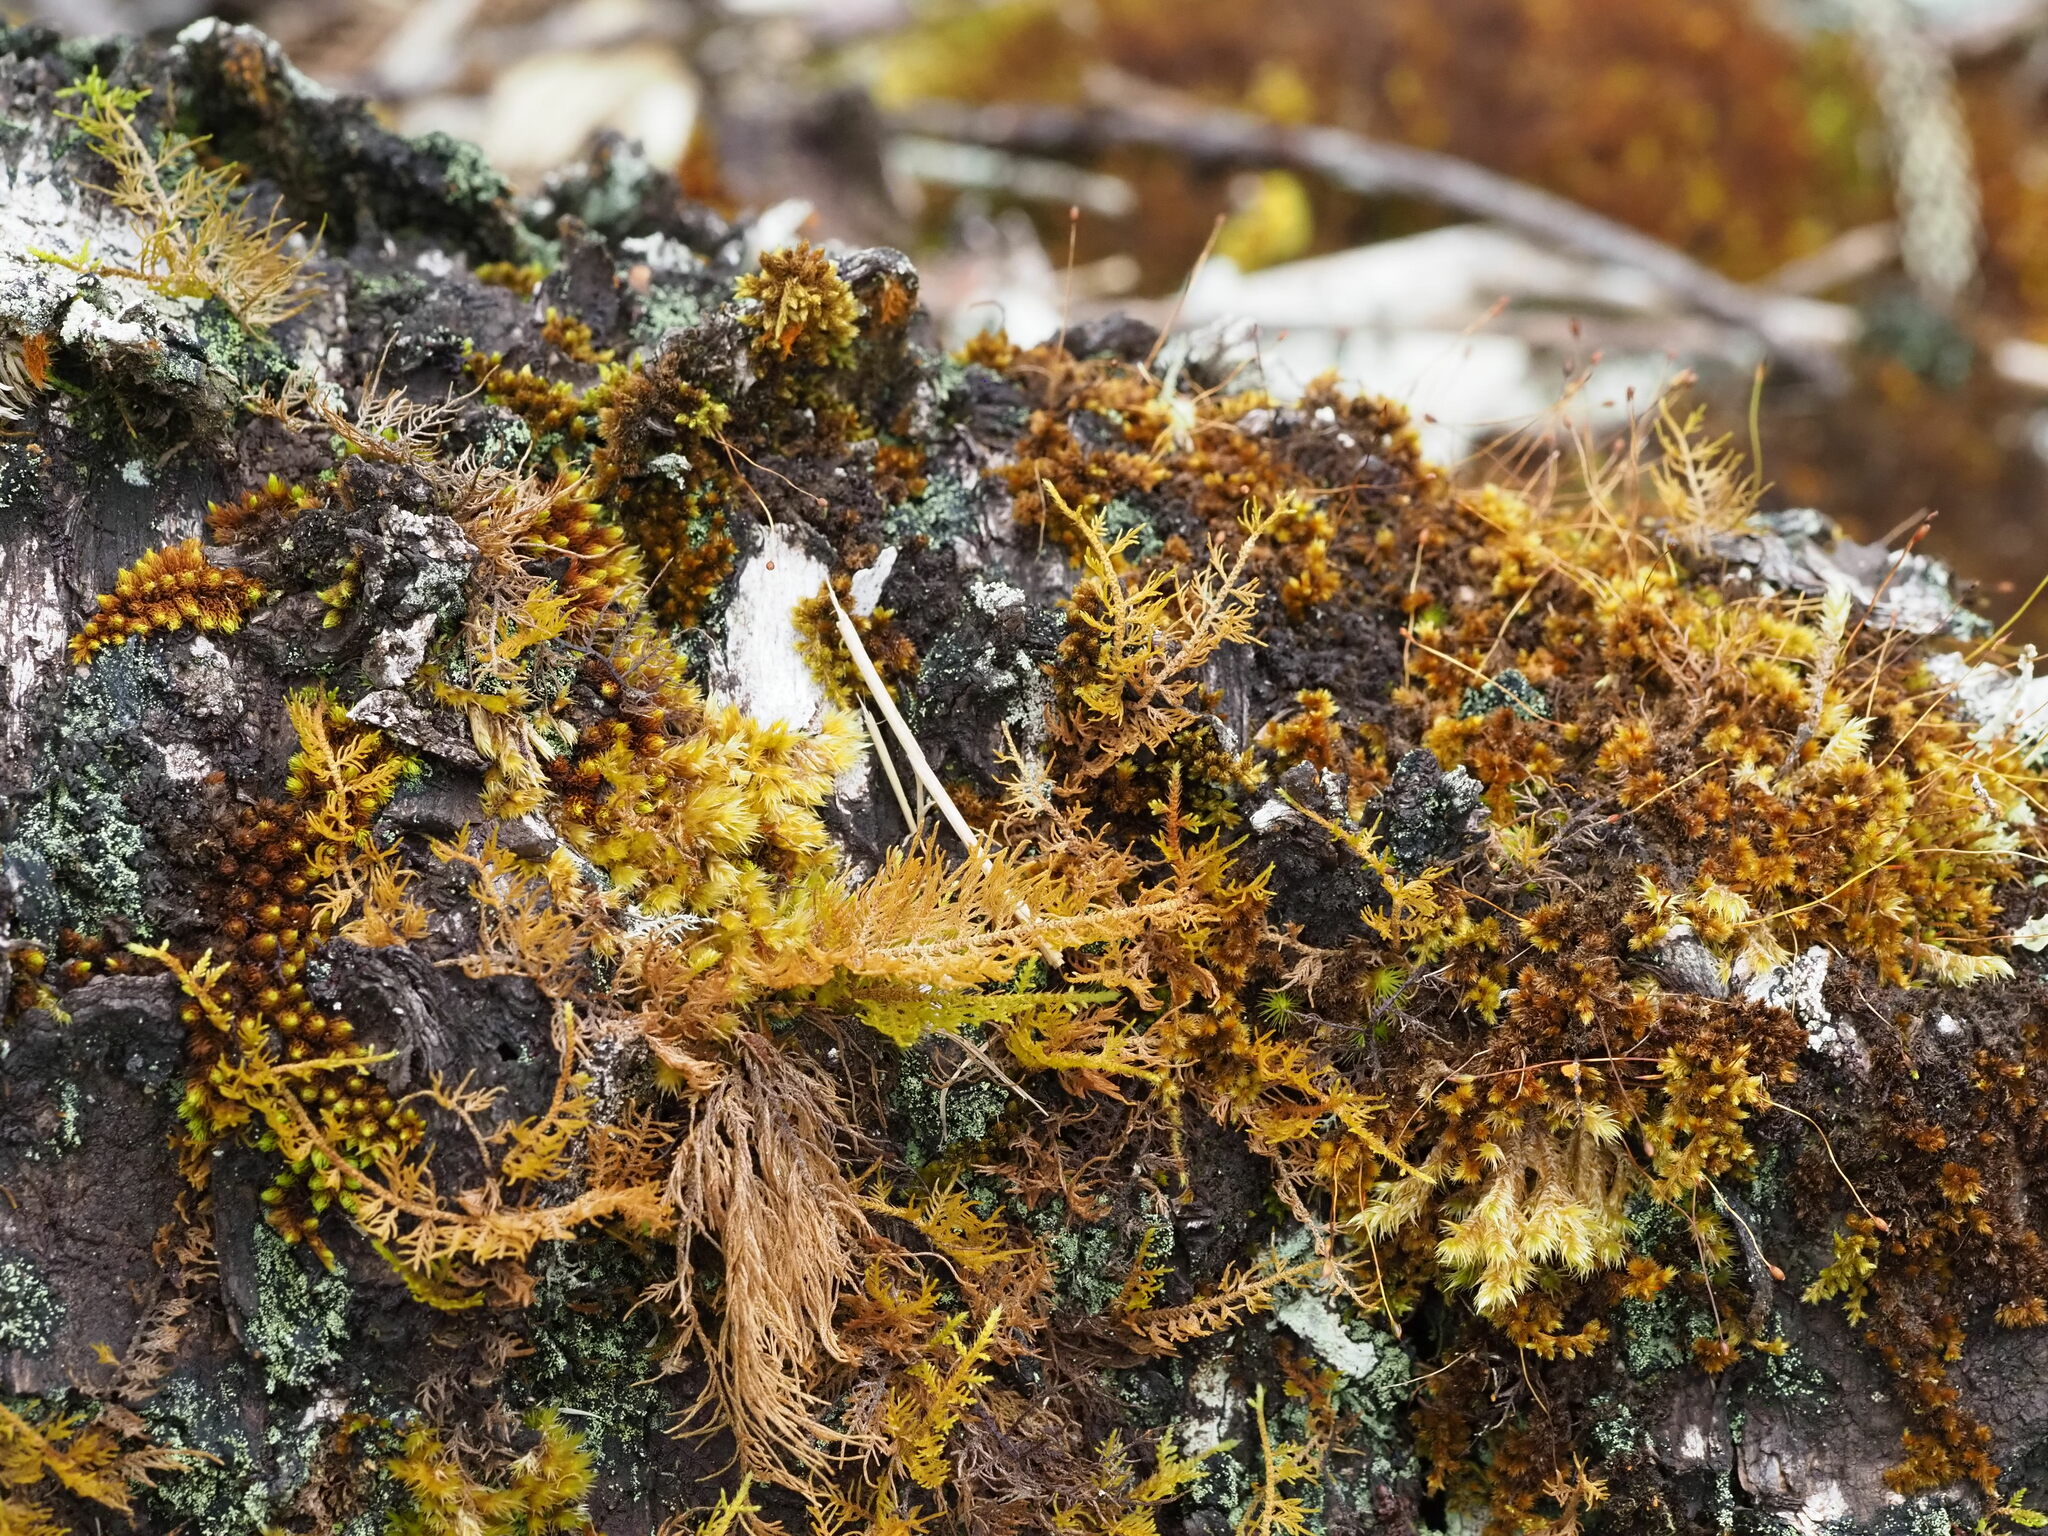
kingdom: Plantae
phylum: Bryophyta
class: Bryopsida
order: Hypnales
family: Thuidiaceae
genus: Thuidium
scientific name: Thuidium cymbifolium
